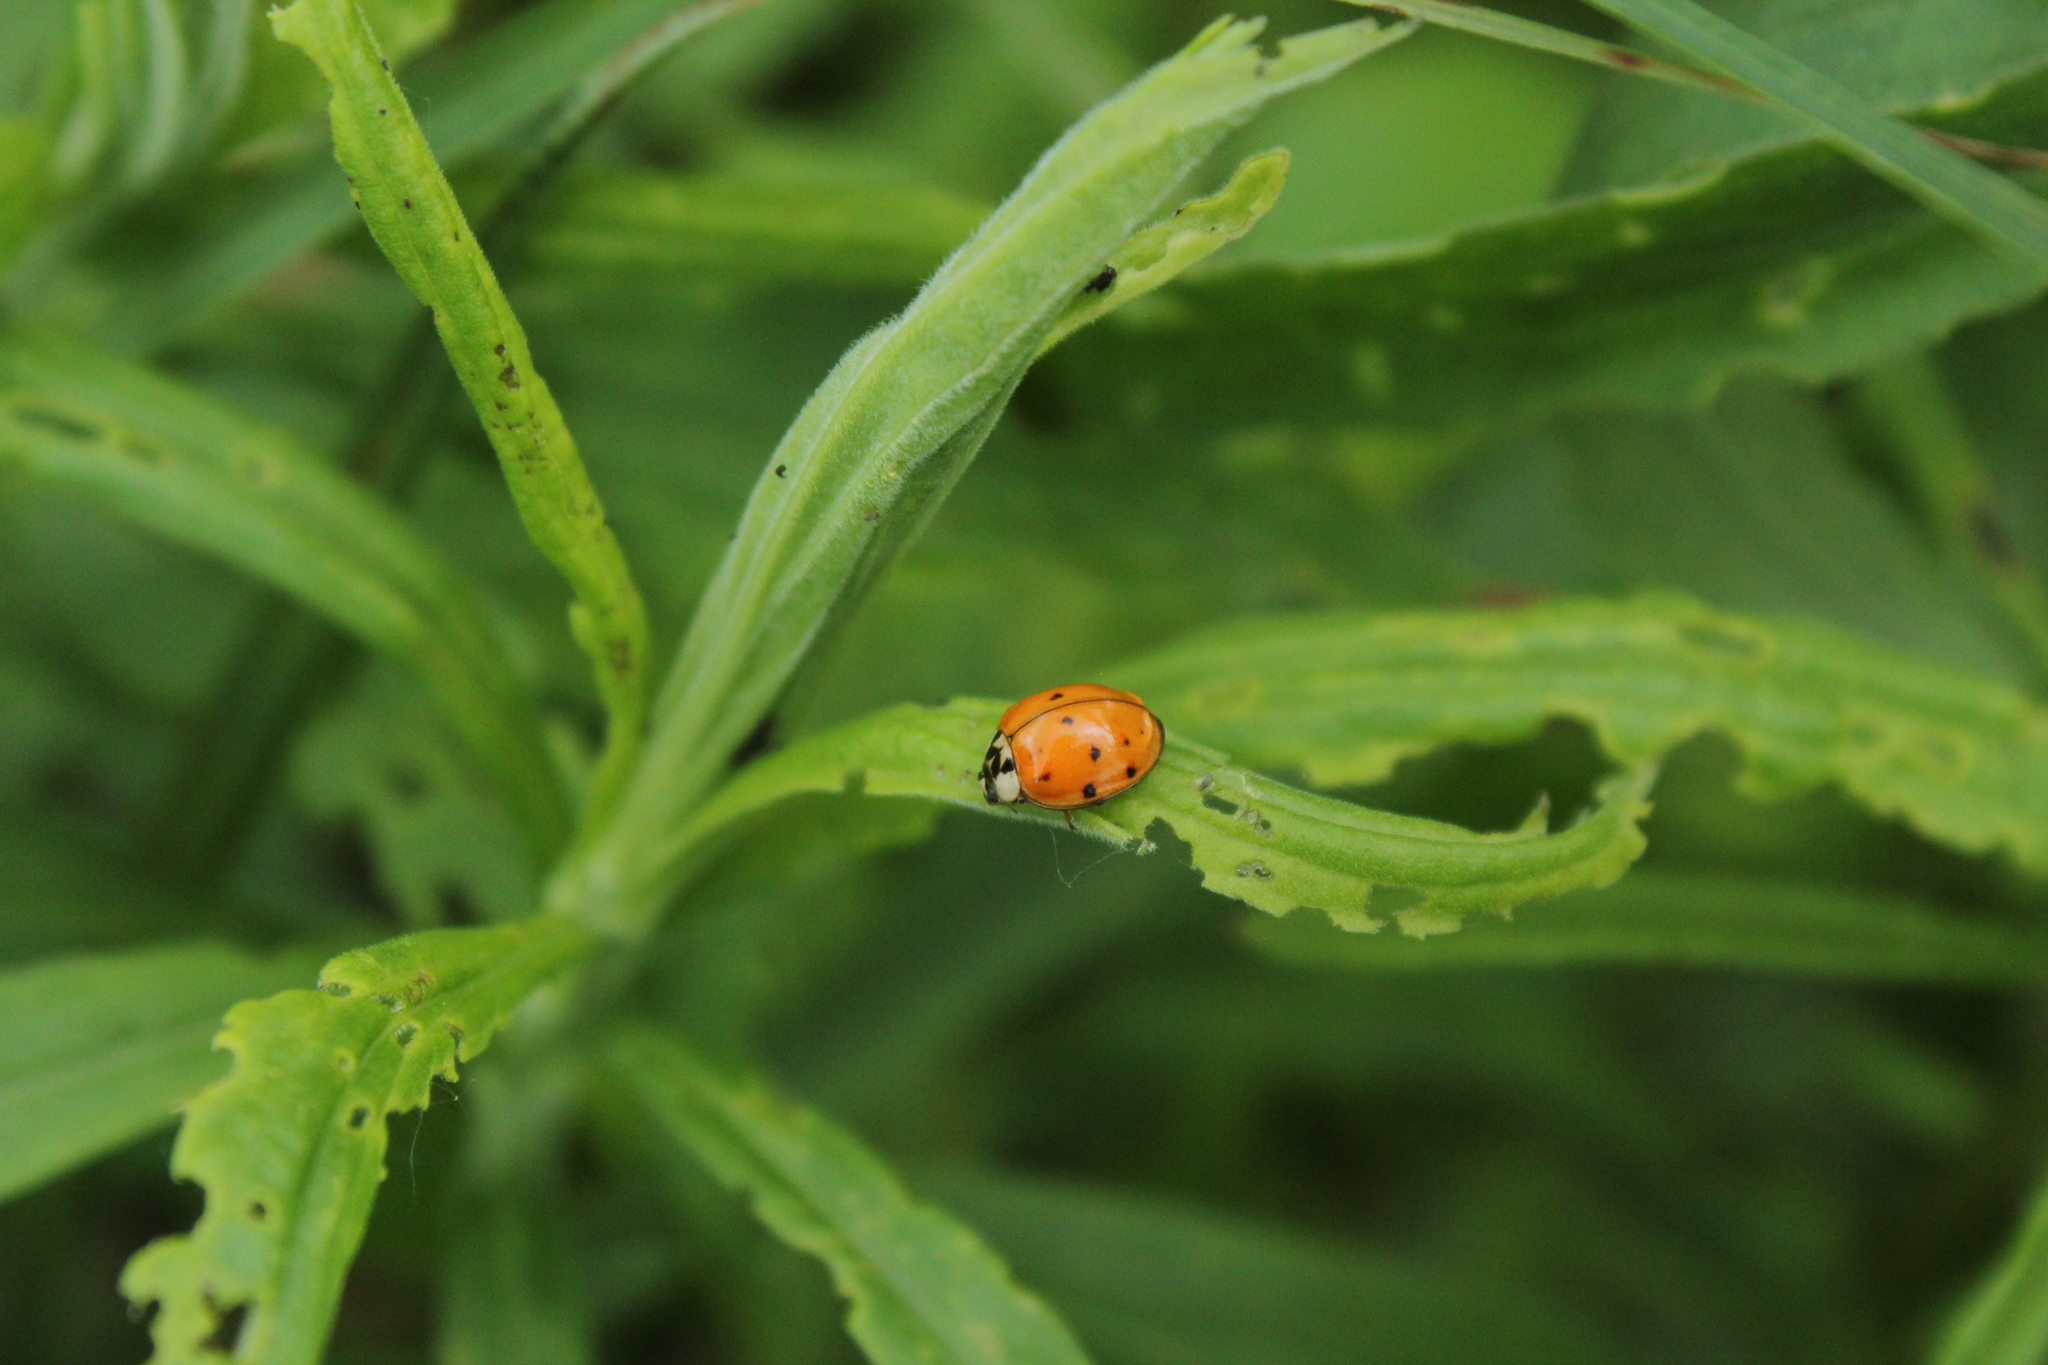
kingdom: Animalia
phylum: Arthropoda
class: Insecta
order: Coleoptera
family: Coccinellidae
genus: Harmonia
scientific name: Harmonia axyridis
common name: Harlequin ladybird
